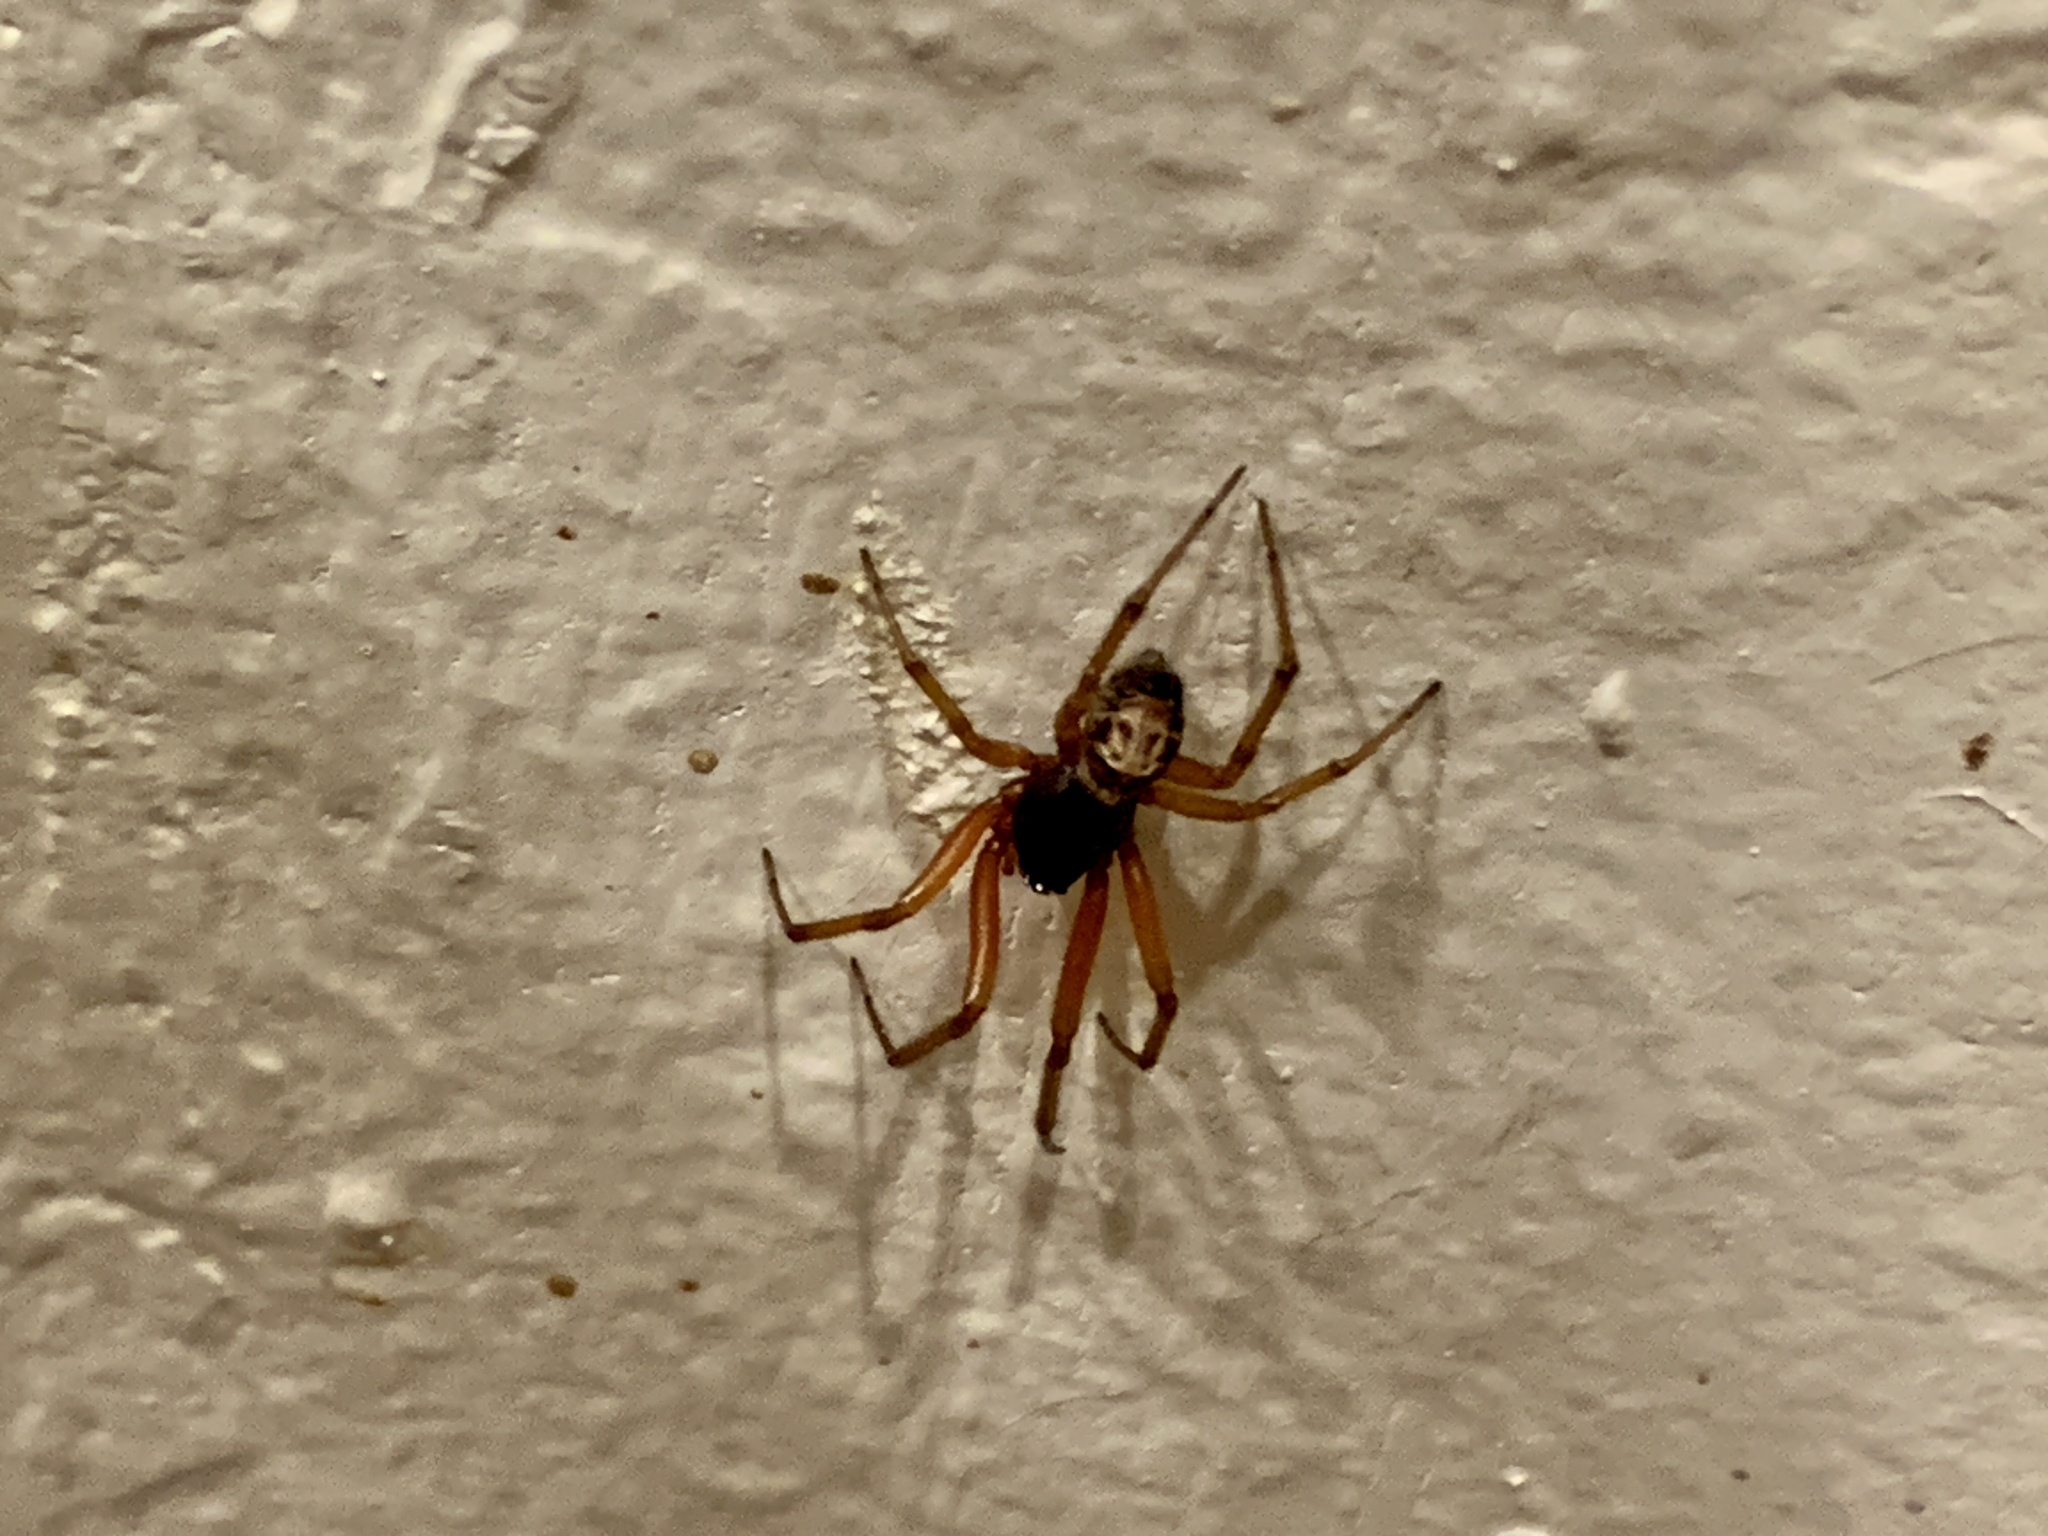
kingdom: Animalia
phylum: Arthropoda
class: Arachnida
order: Araneae
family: Theridiidae
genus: Steatoda
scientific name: Steatoda nobilis
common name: Cobweb weaver
